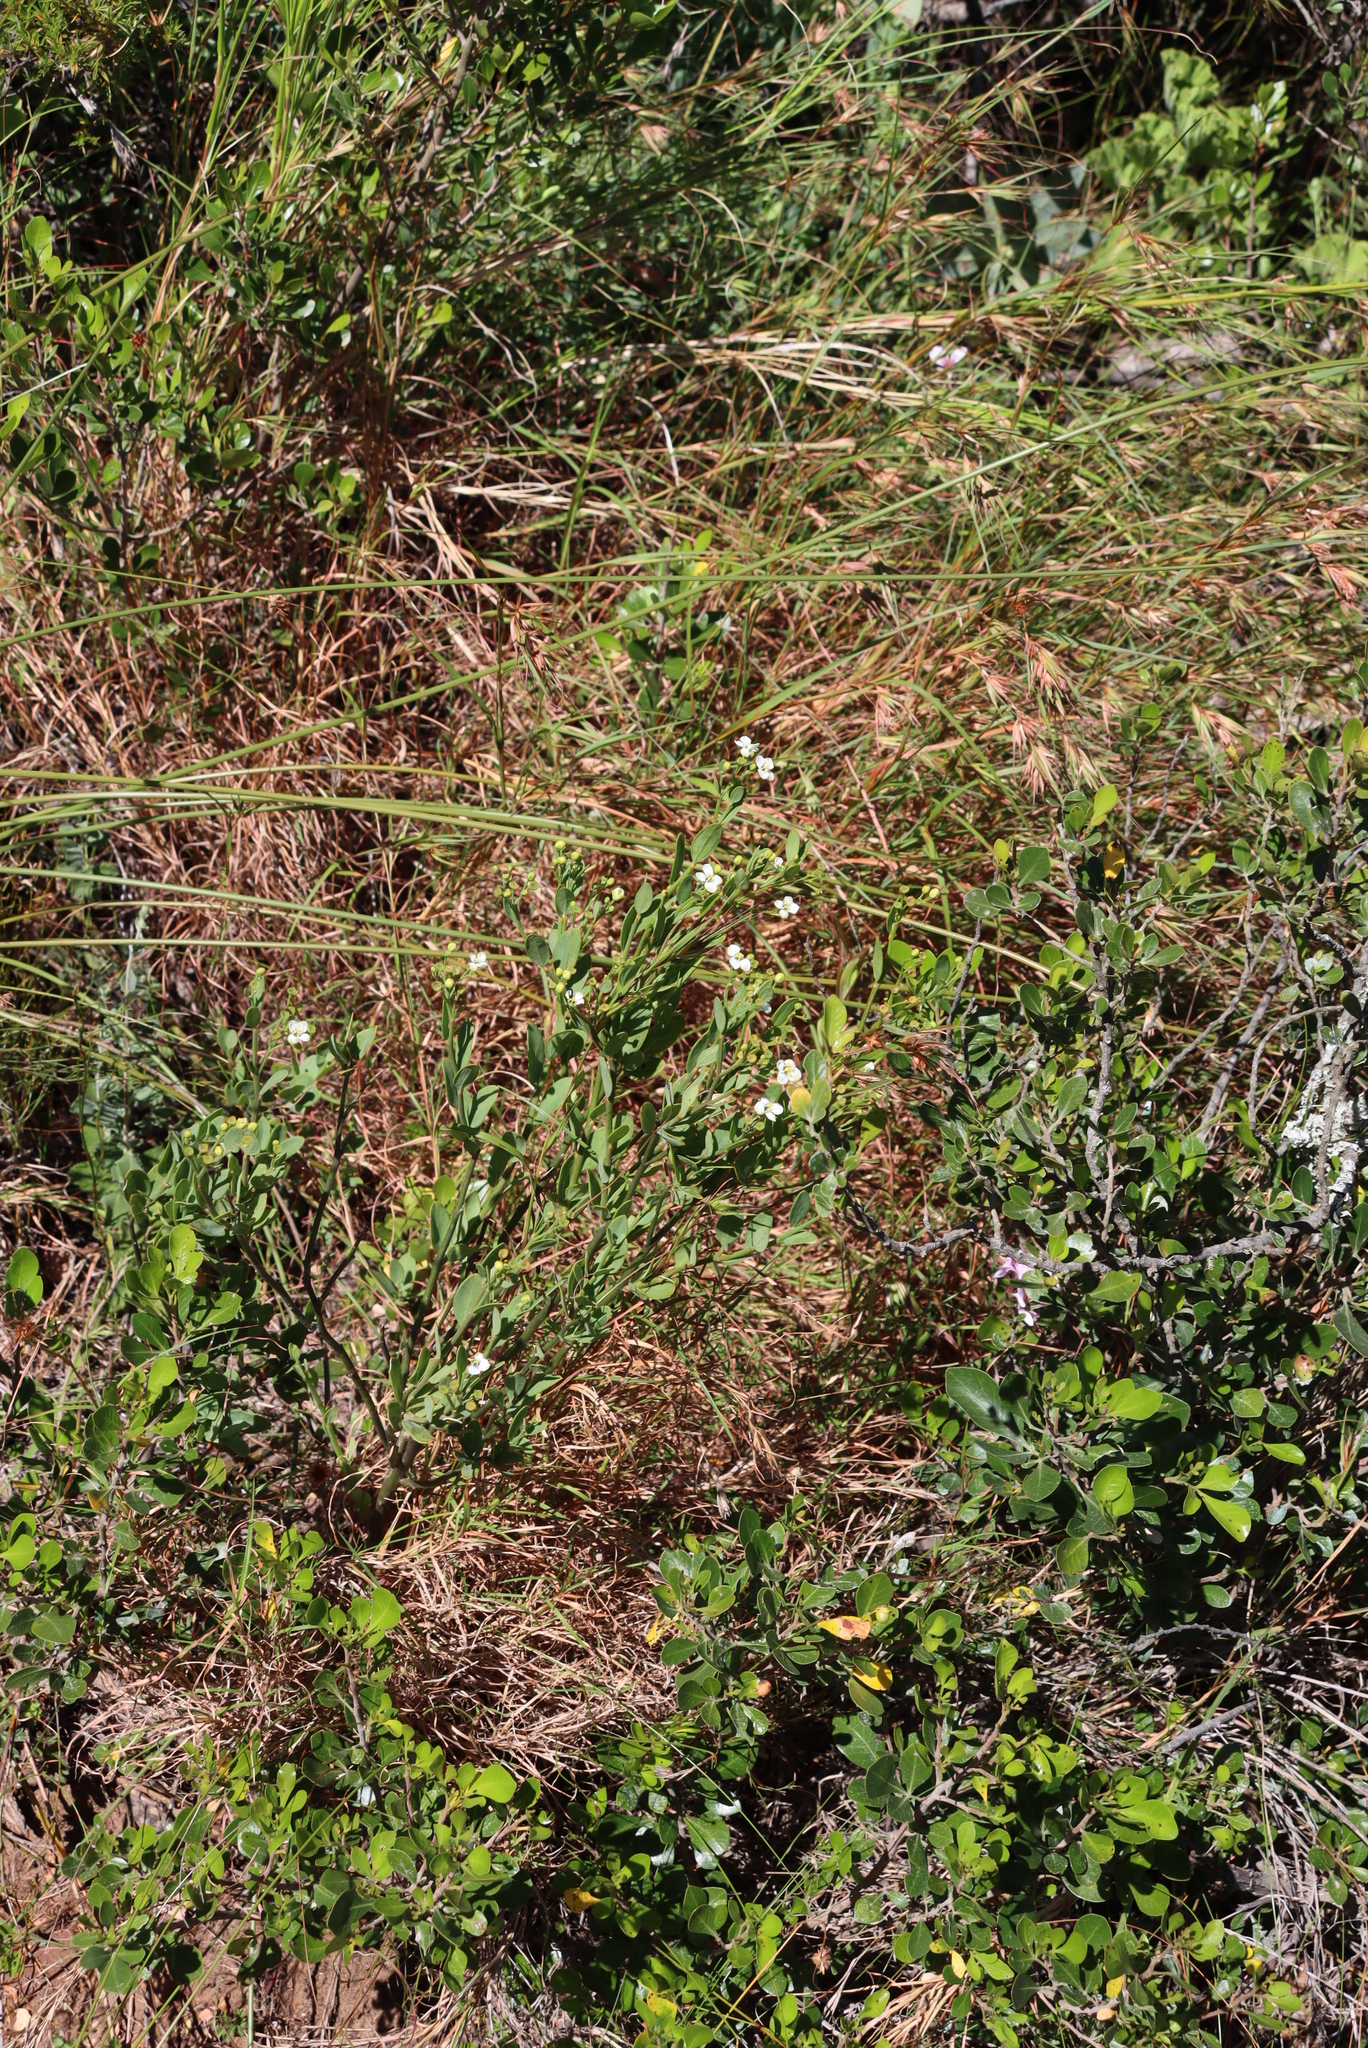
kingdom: Plantae
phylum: Tracheophyta
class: Magnoliopsida
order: Solanales
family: Montiniaceae
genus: Montinia
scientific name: Montinia caryophyllacea
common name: Wild clove-bush
